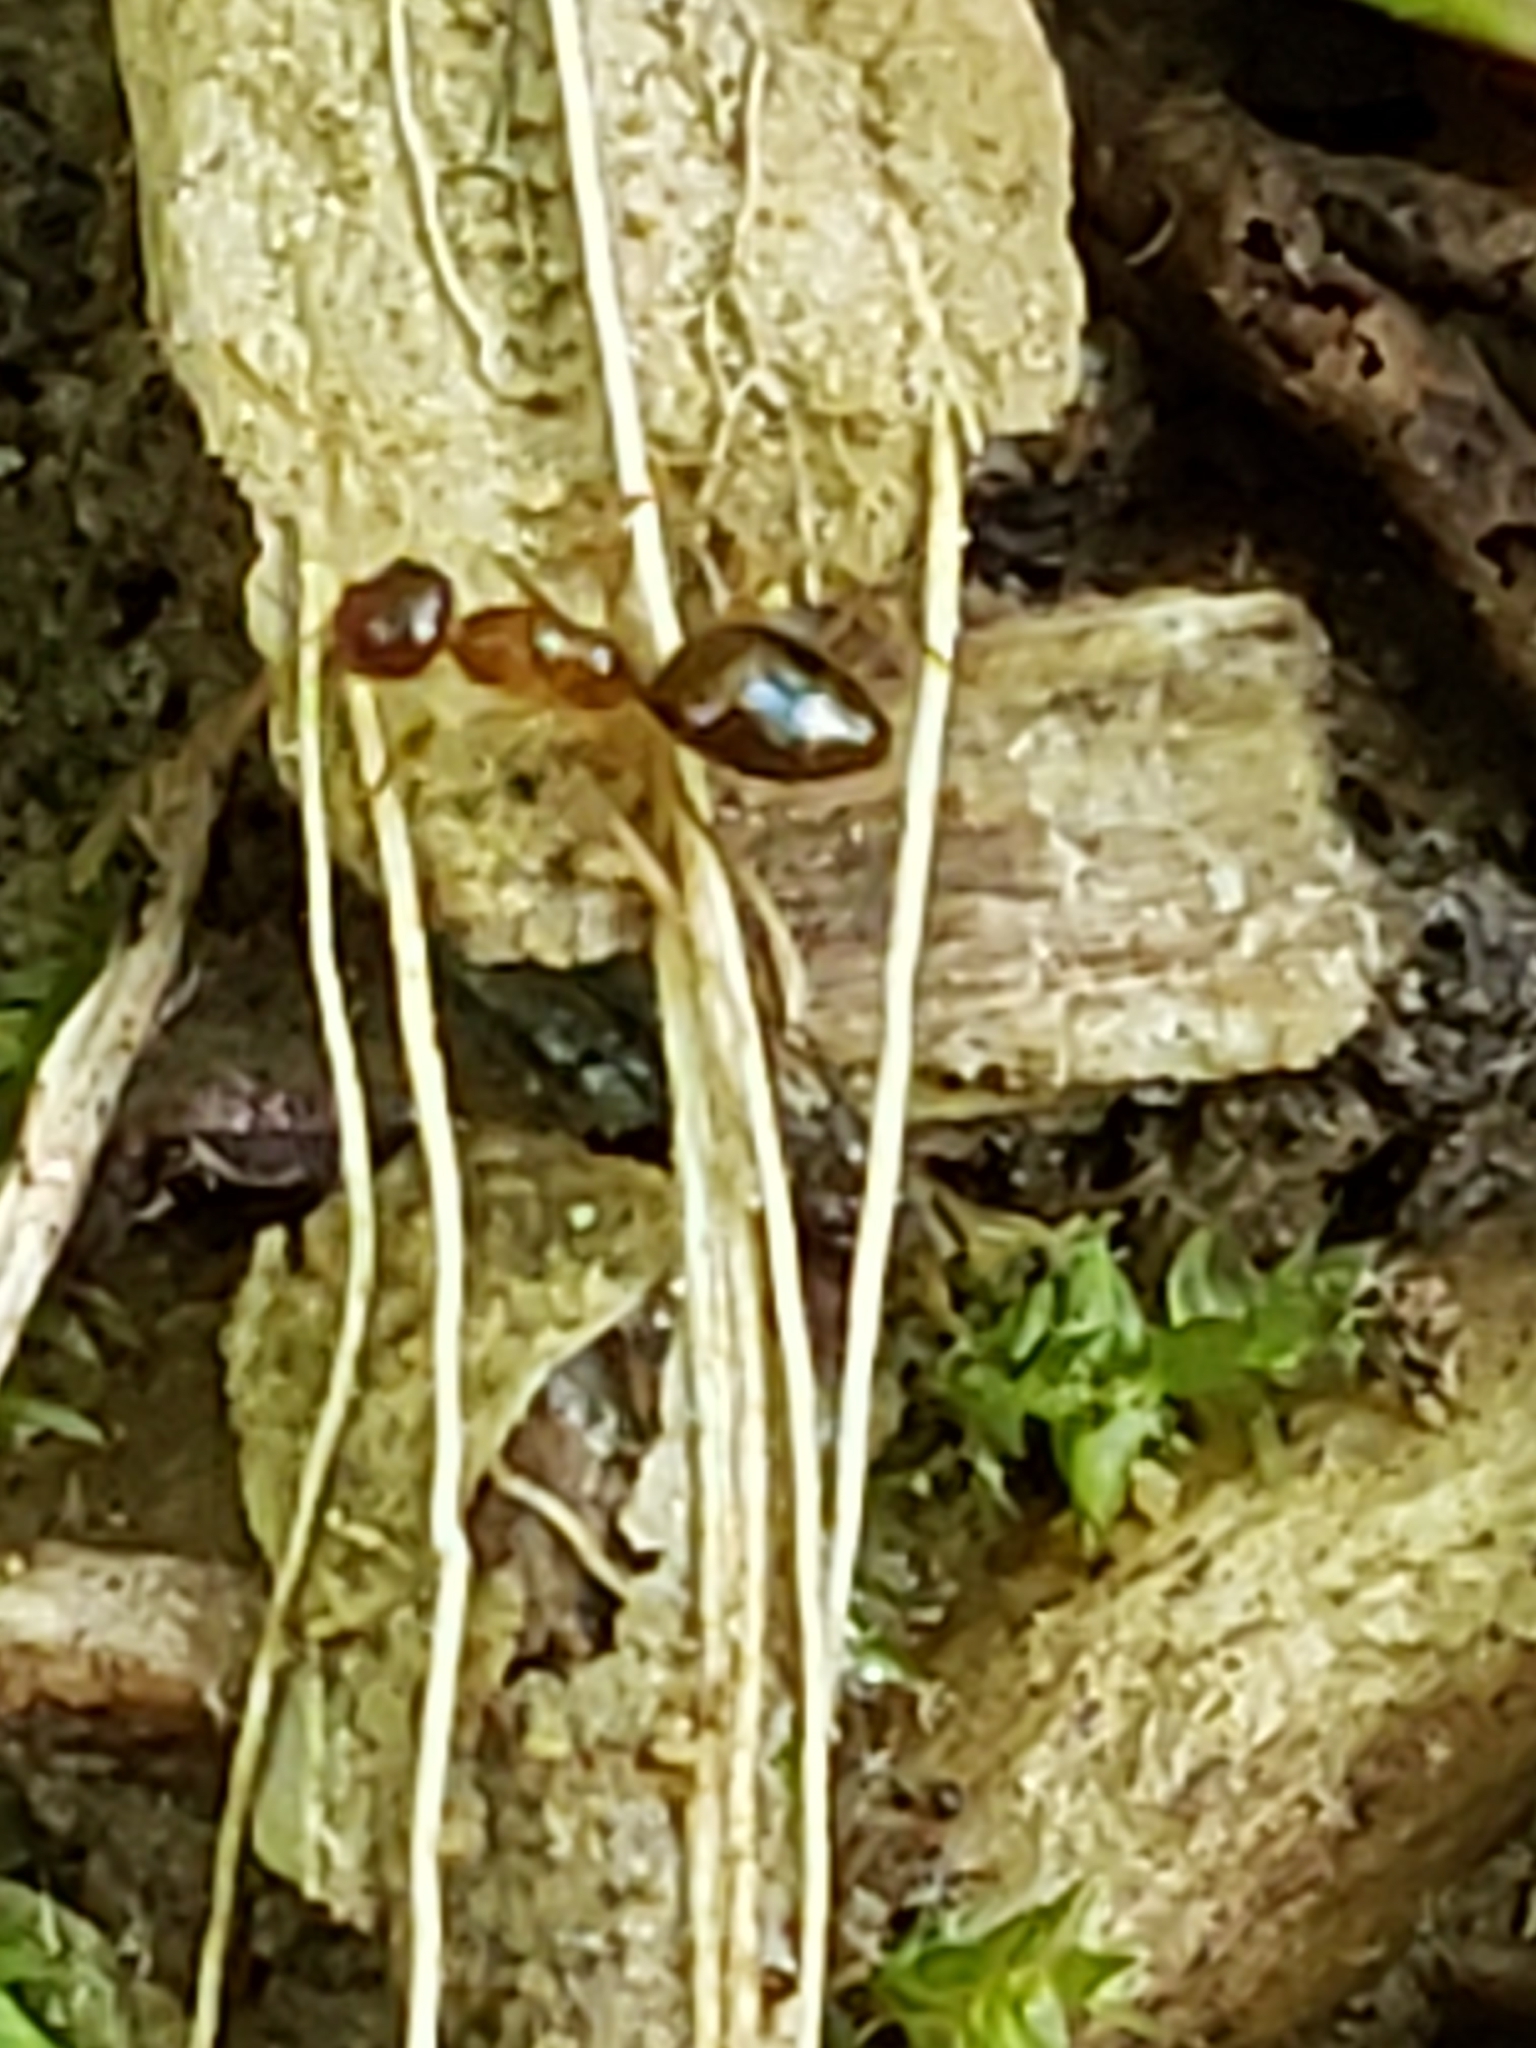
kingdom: Animalia
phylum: Arthropoda
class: Insecta
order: Hymenoptera
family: Formicidae
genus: Prenolepis
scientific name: Prenolepis imparis
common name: Small honey ant
